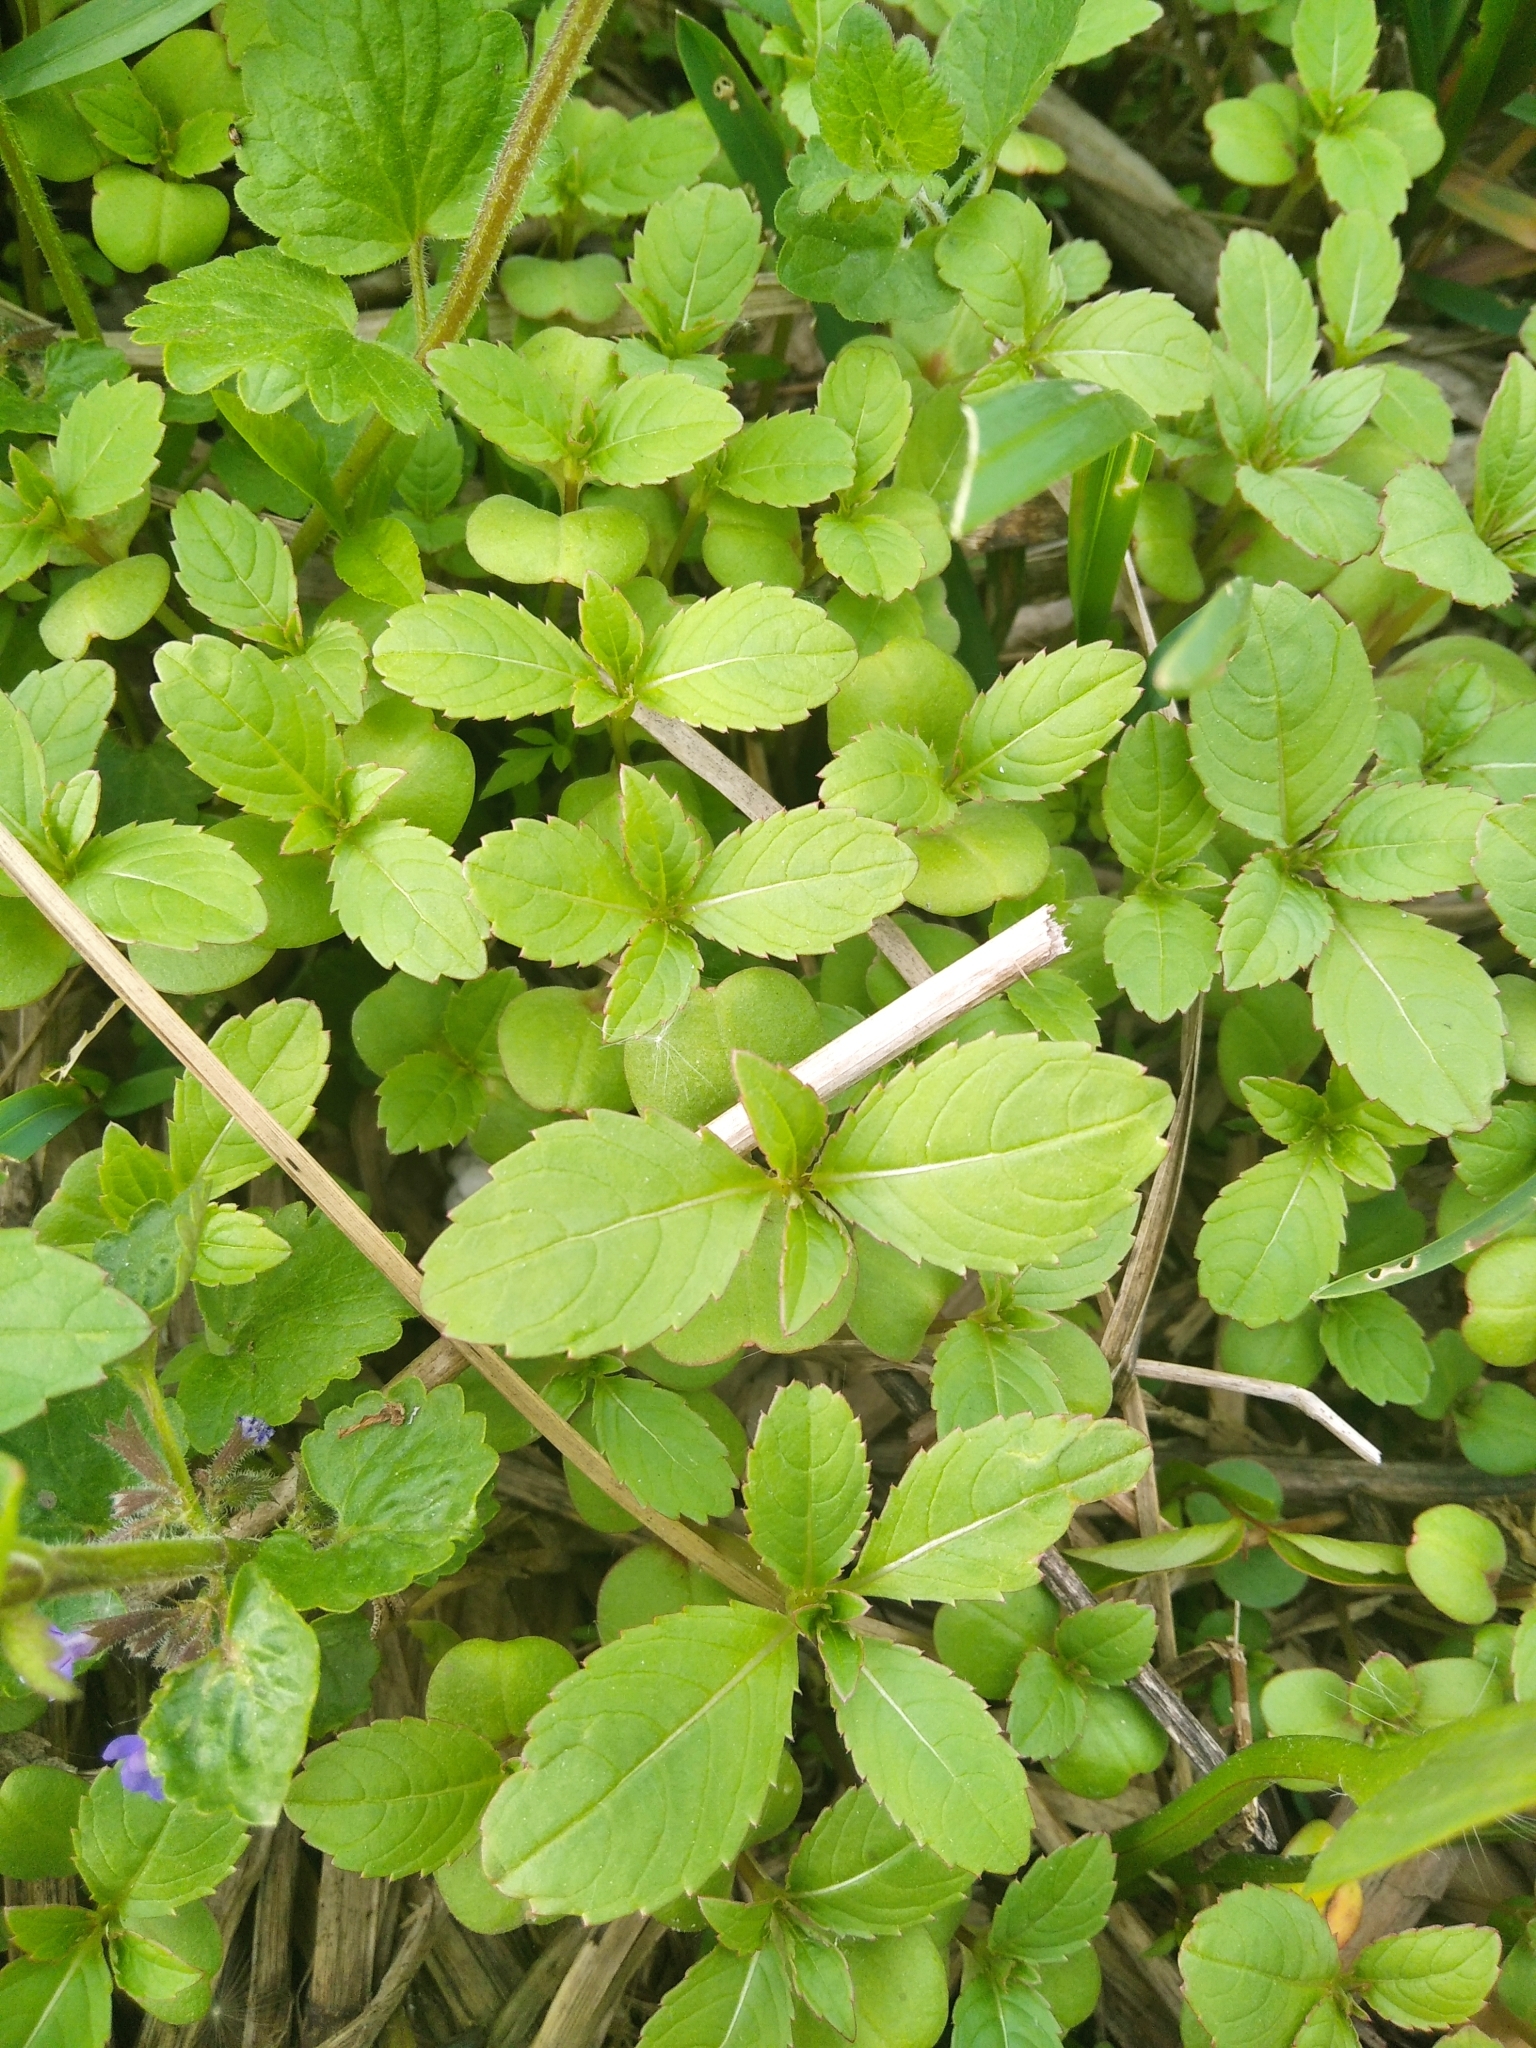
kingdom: Plantae
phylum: Tracheophyta
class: Magnoliopsida
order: Ericales
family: Balsaminaceae
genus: Impatiens
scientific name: Impatiens glandulifera
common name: Himalayan balsam
